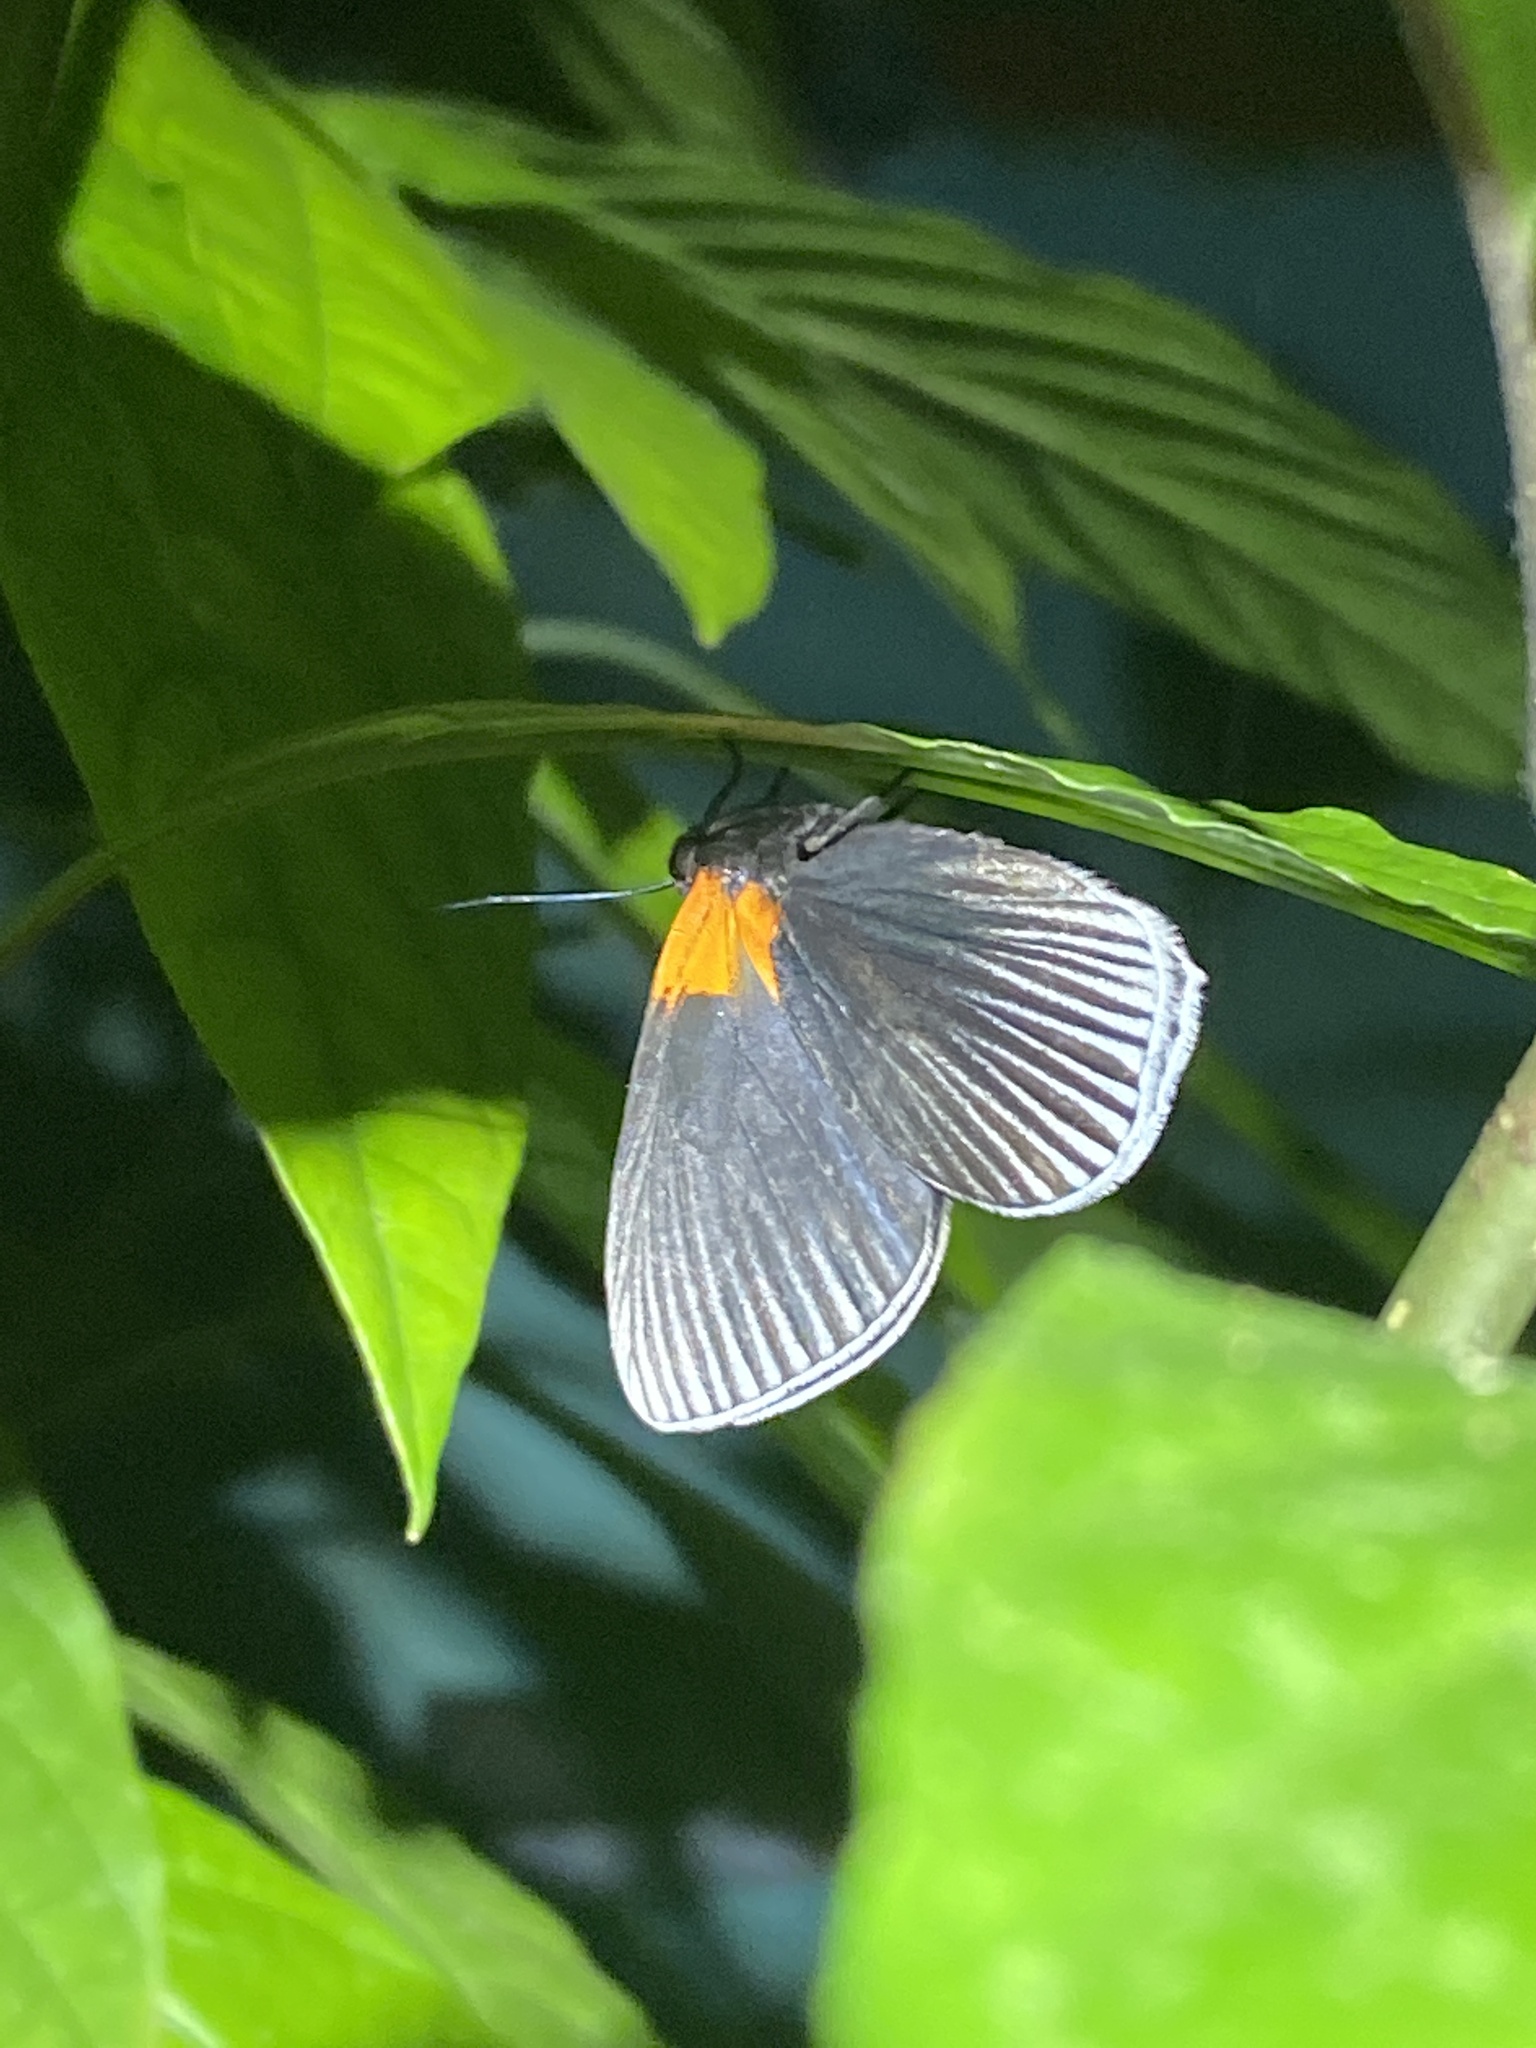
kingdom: Animalia
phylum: Arthropoda
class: Insecta
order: Lepidoptera
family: Riodinidae
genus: Hades
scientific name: Hades noctula
